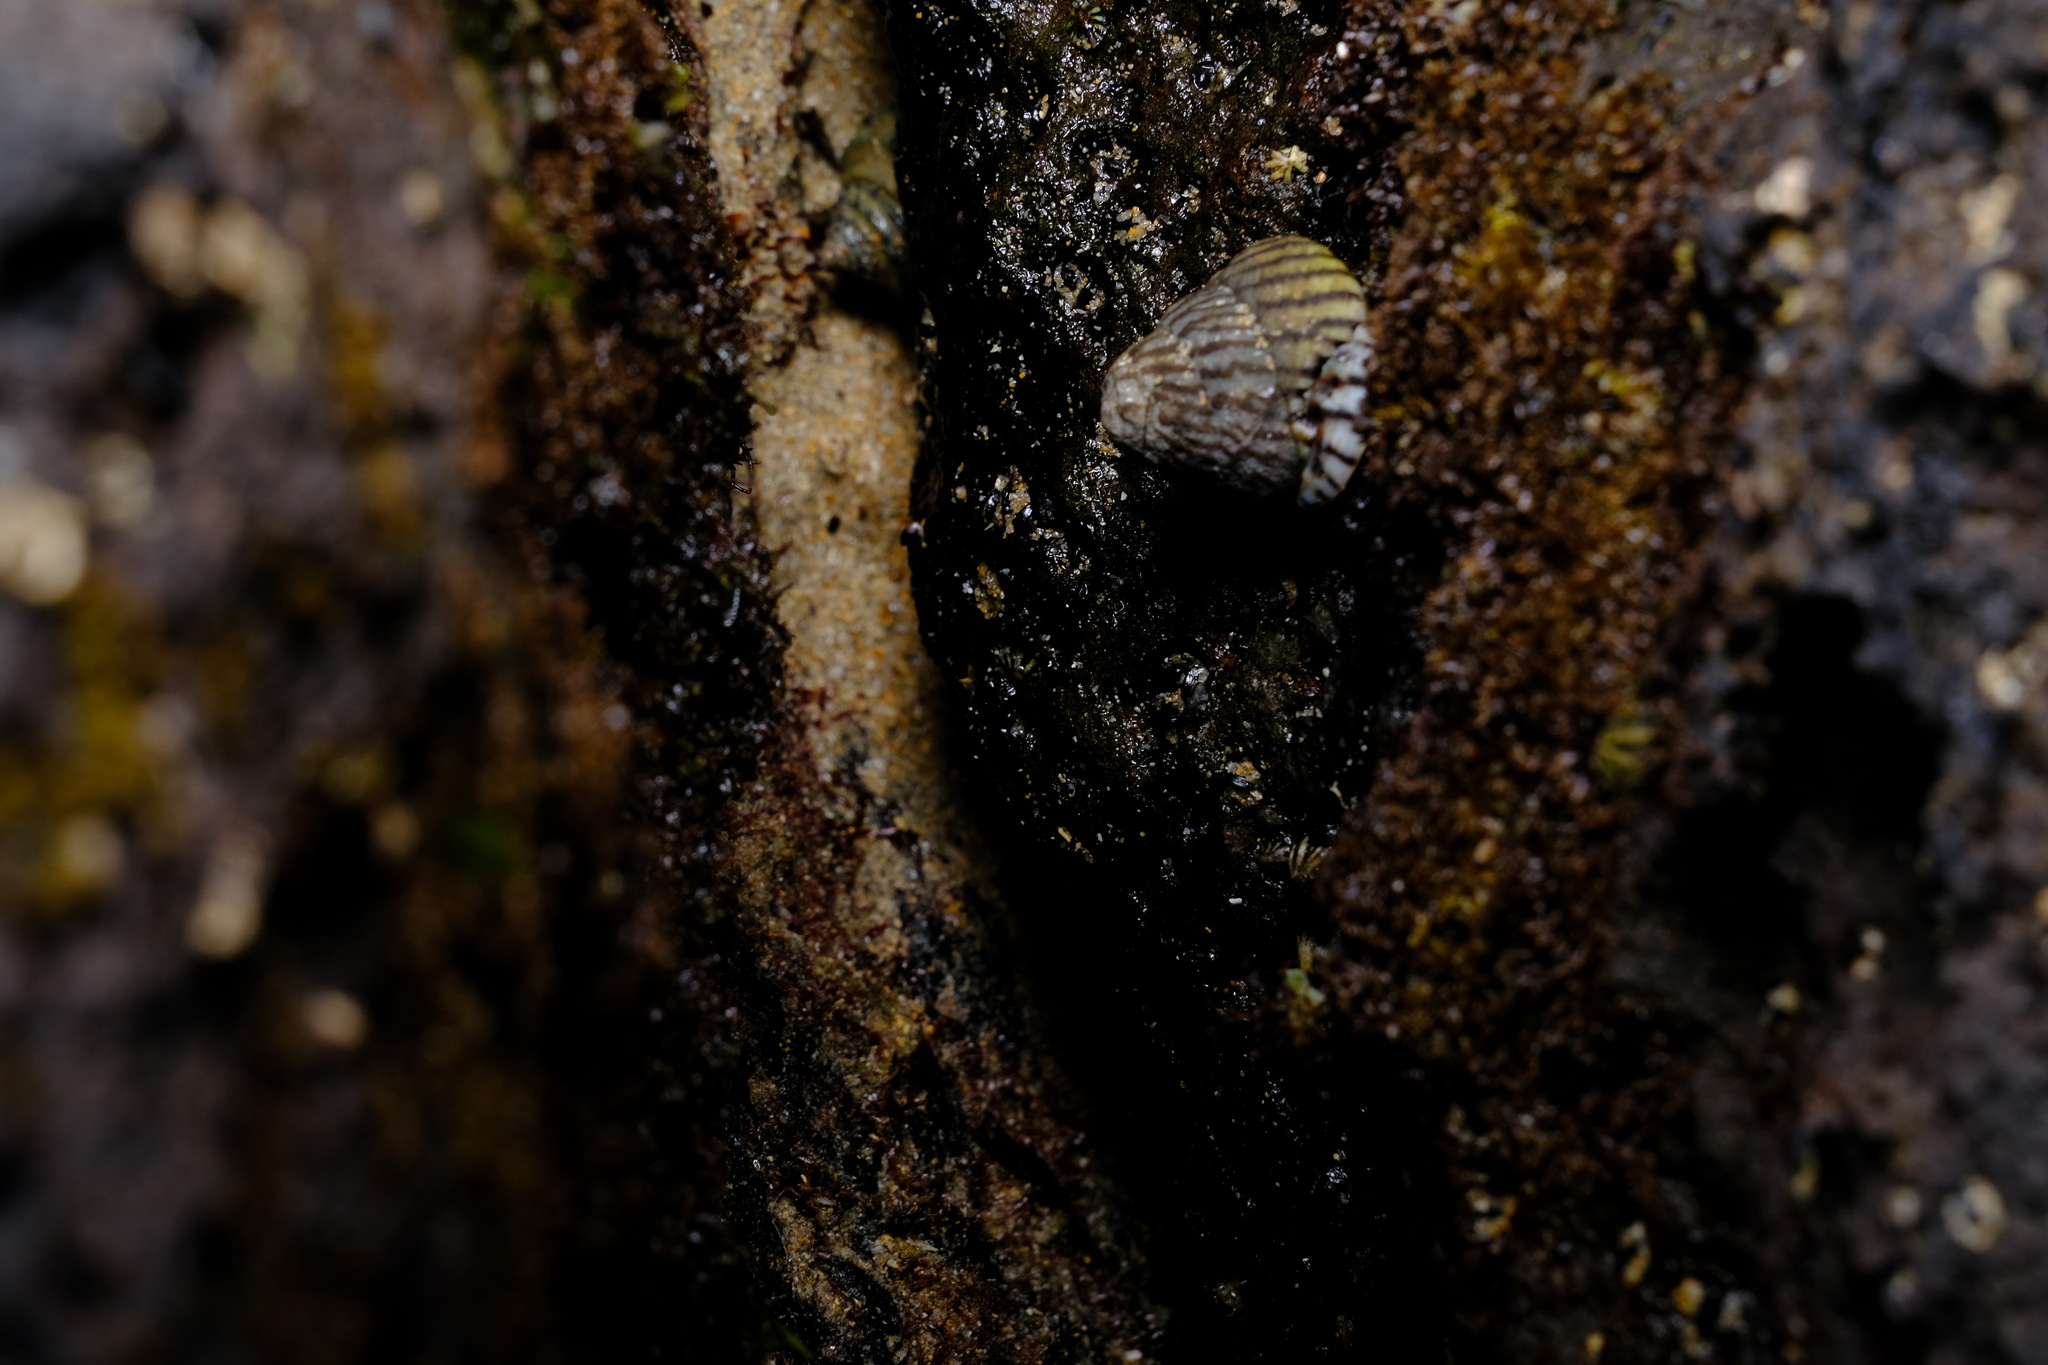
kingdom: Animalia
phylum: Mollusca
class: Gastropoda
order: Littorinimorpha
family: Littorinidae
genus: Bembicium
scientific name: Bembicium nanum
